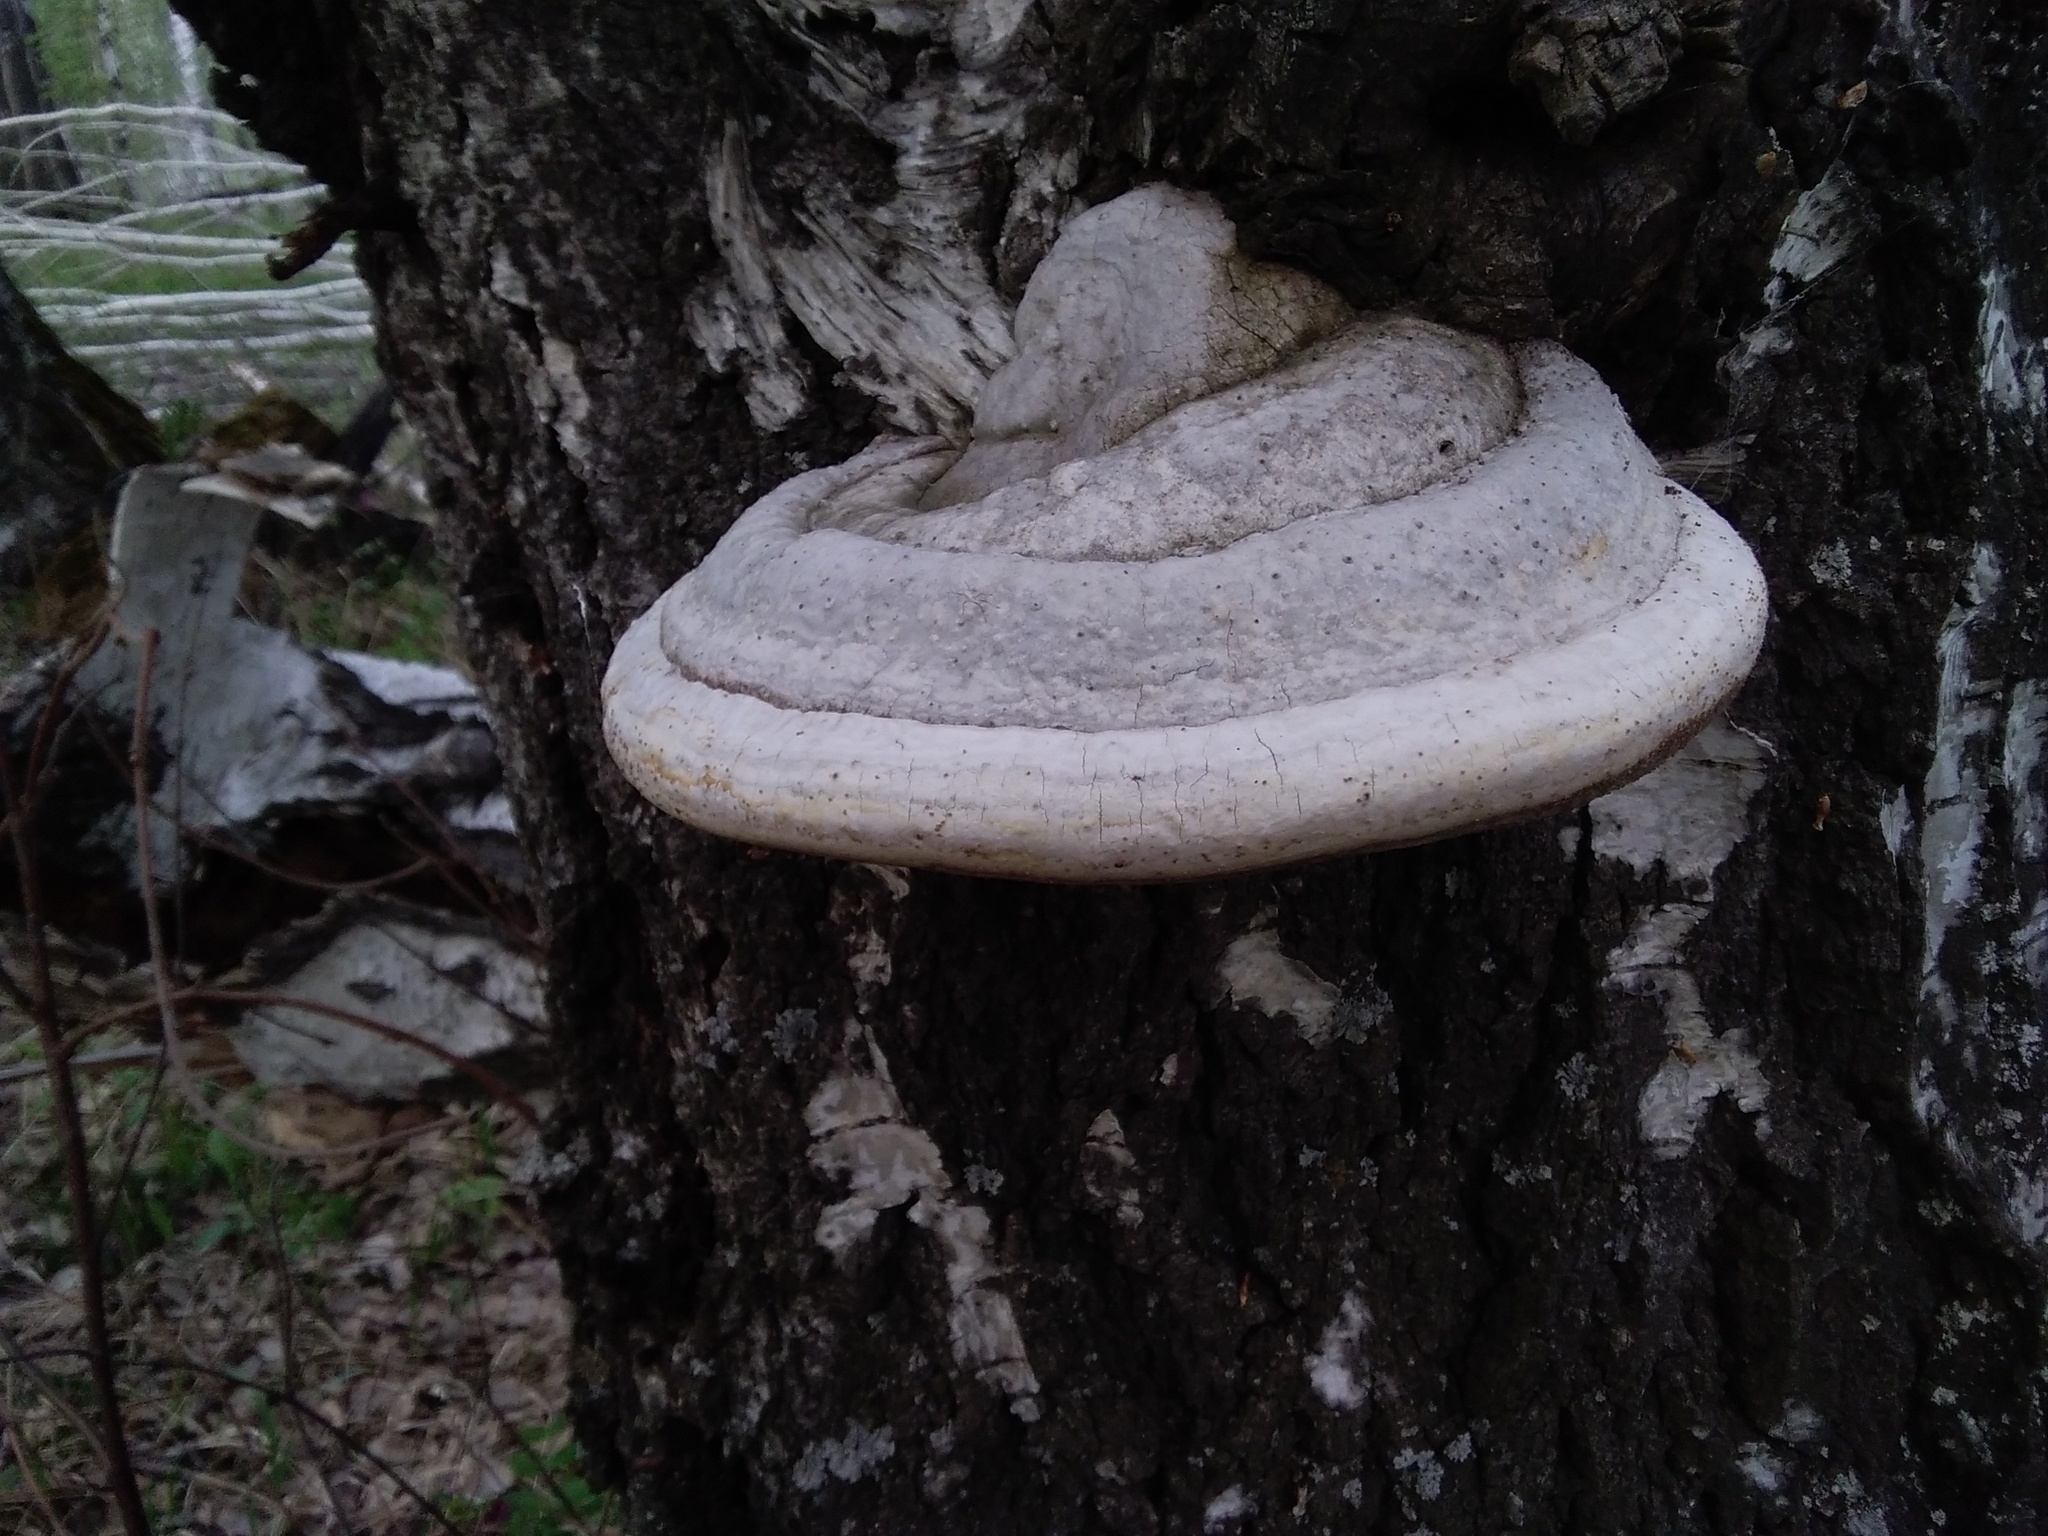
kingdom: Fungi
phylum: Basidiomycota
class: Agaricomycetes
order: Polyporales
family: Polyporaceae
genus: Fomes
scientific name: Fomes fomentarius
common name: Hoof fungus
